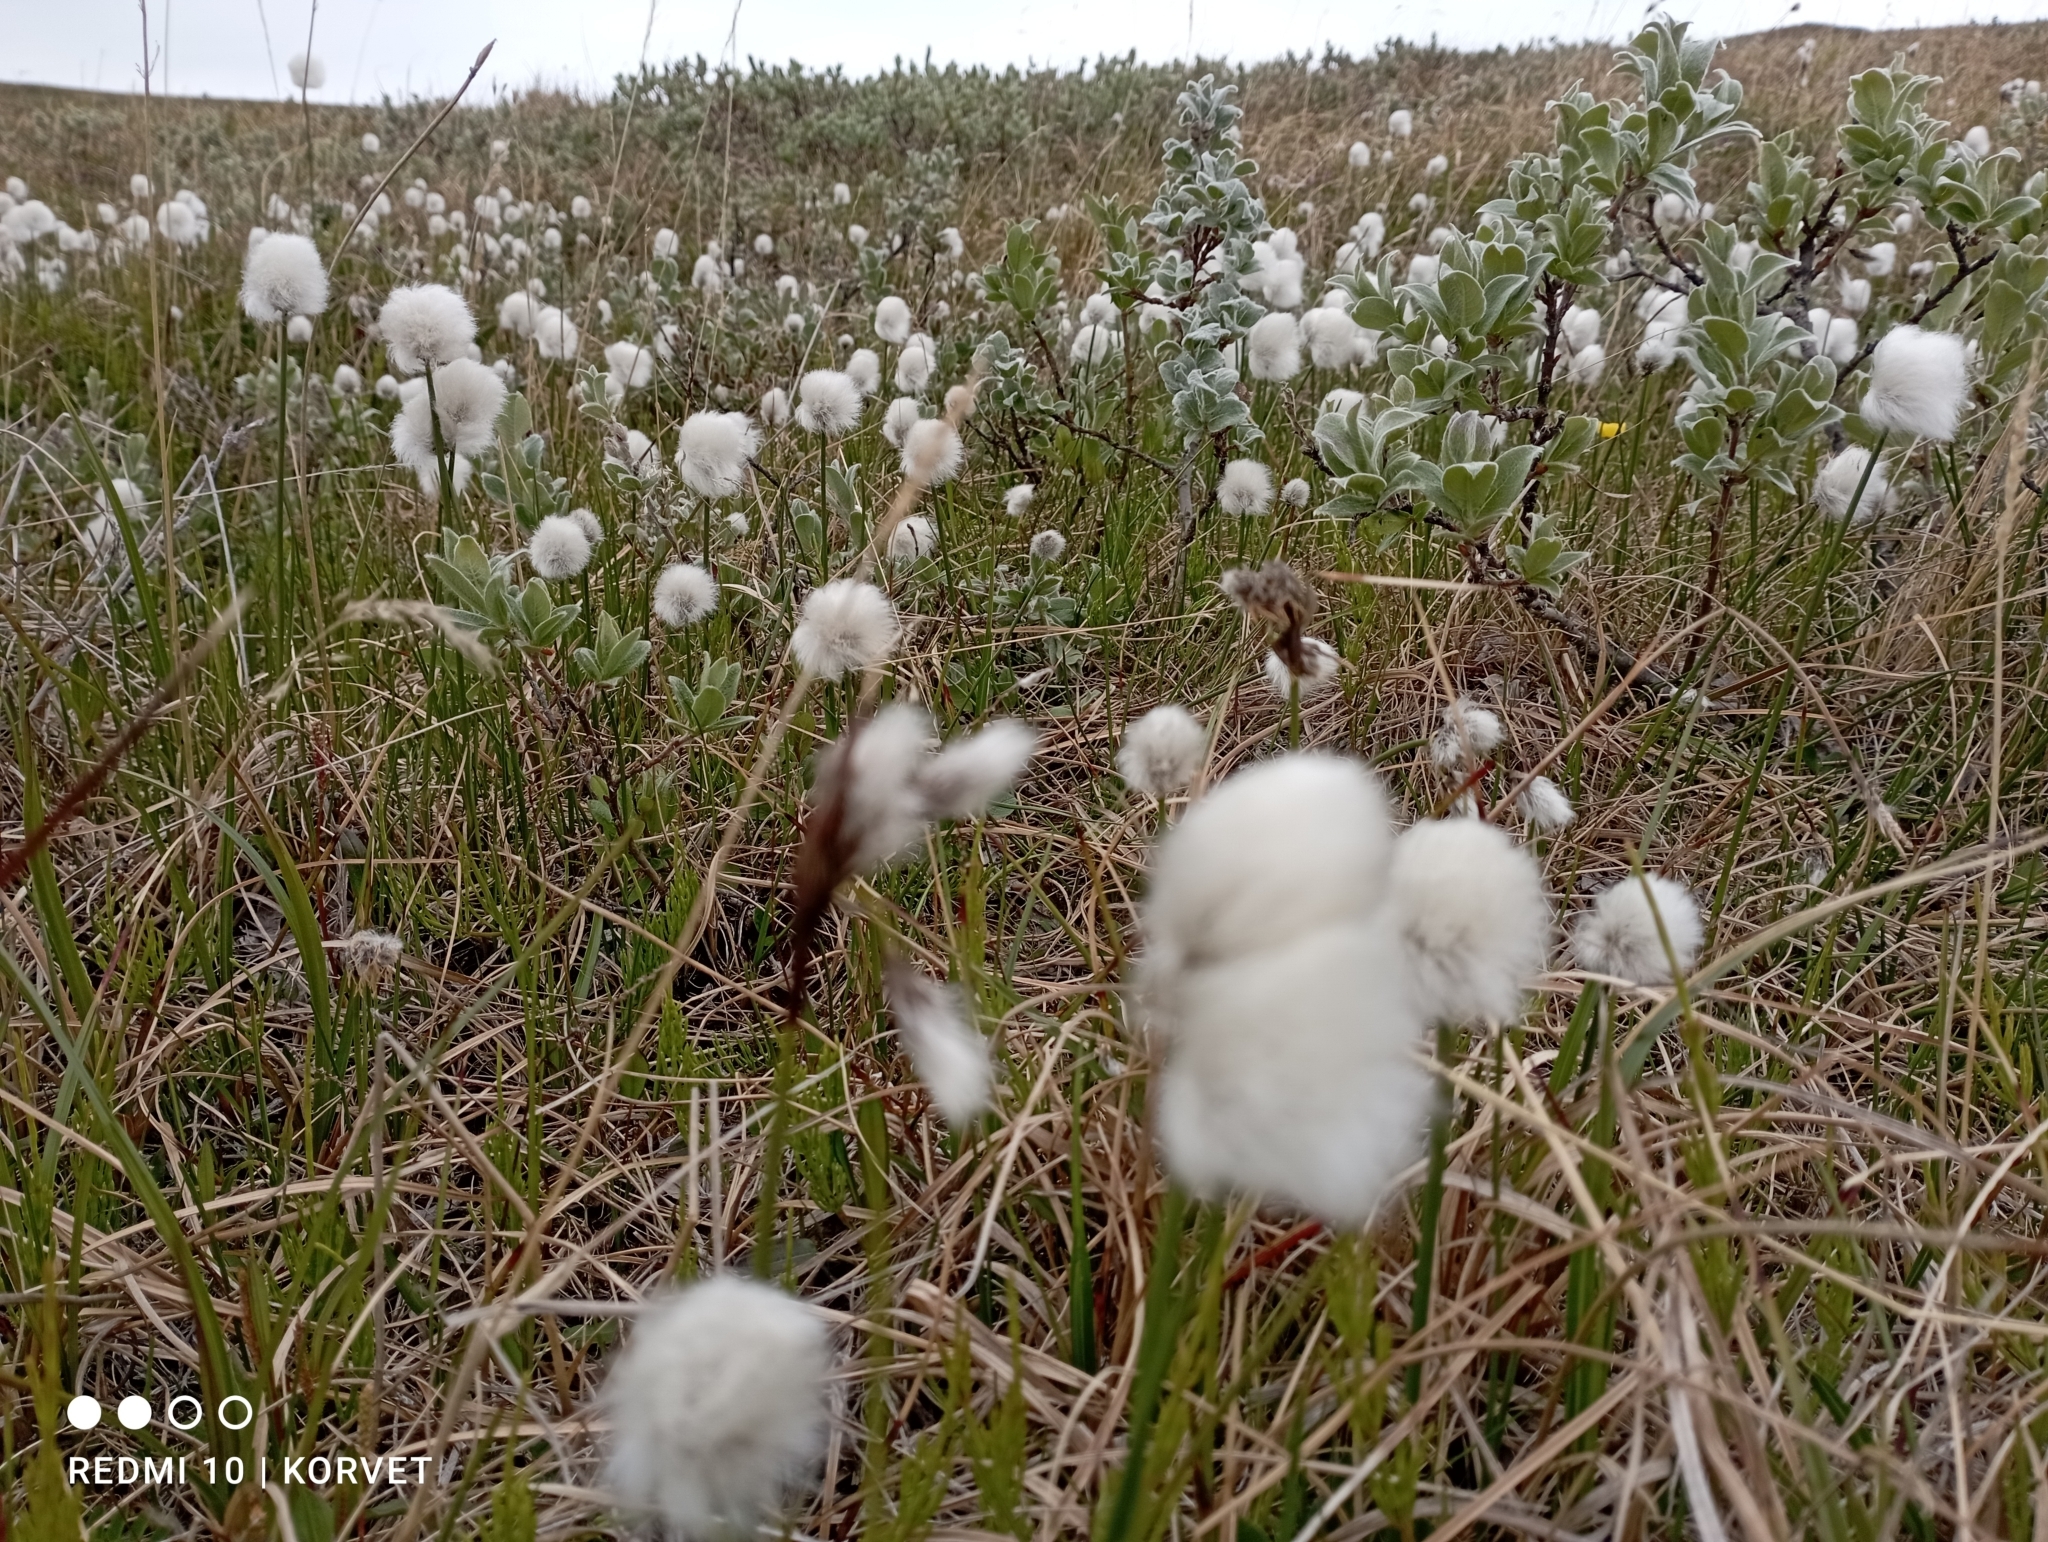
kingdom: Plantae
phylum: Tracheophyta
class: Liliopsida
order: Poales
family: Cyperaceae
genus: Eriophorum
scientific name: Eriophorum scheuchzeri
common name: Scheuchzer's cottongrass
